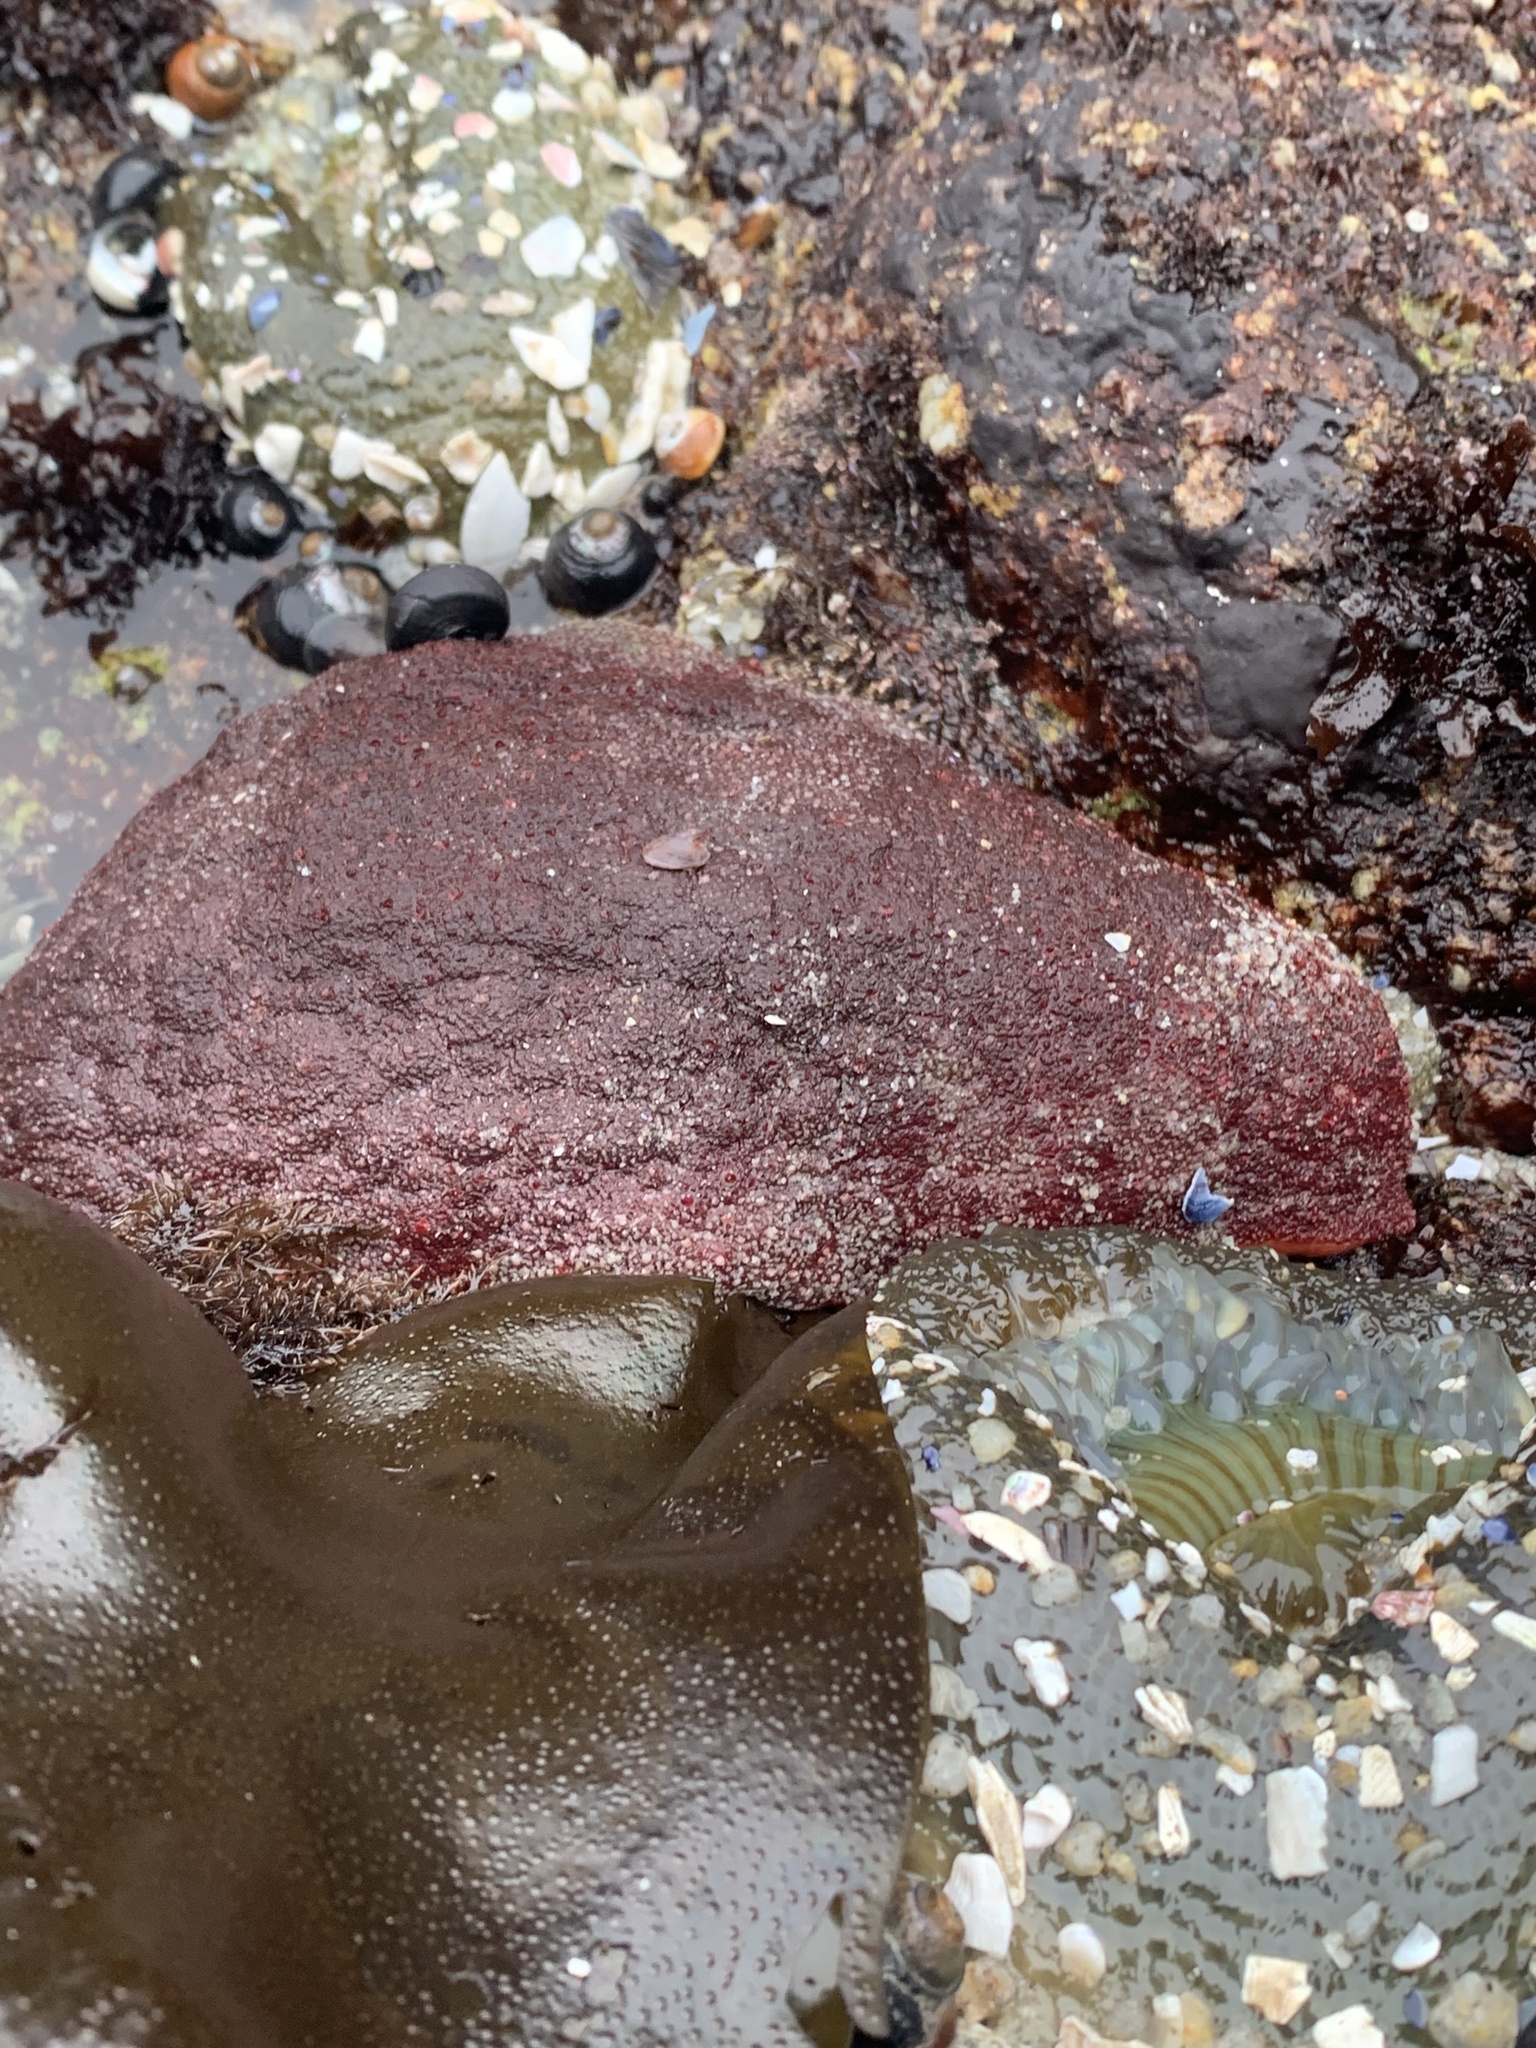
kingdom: Animalia
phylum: Mollusca
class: Polyplacophora
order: Chitonida
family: Acanthochitonidae
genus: Cryptochiton
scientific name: Cryptochiton stelleri
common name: Giant pacific chiton
